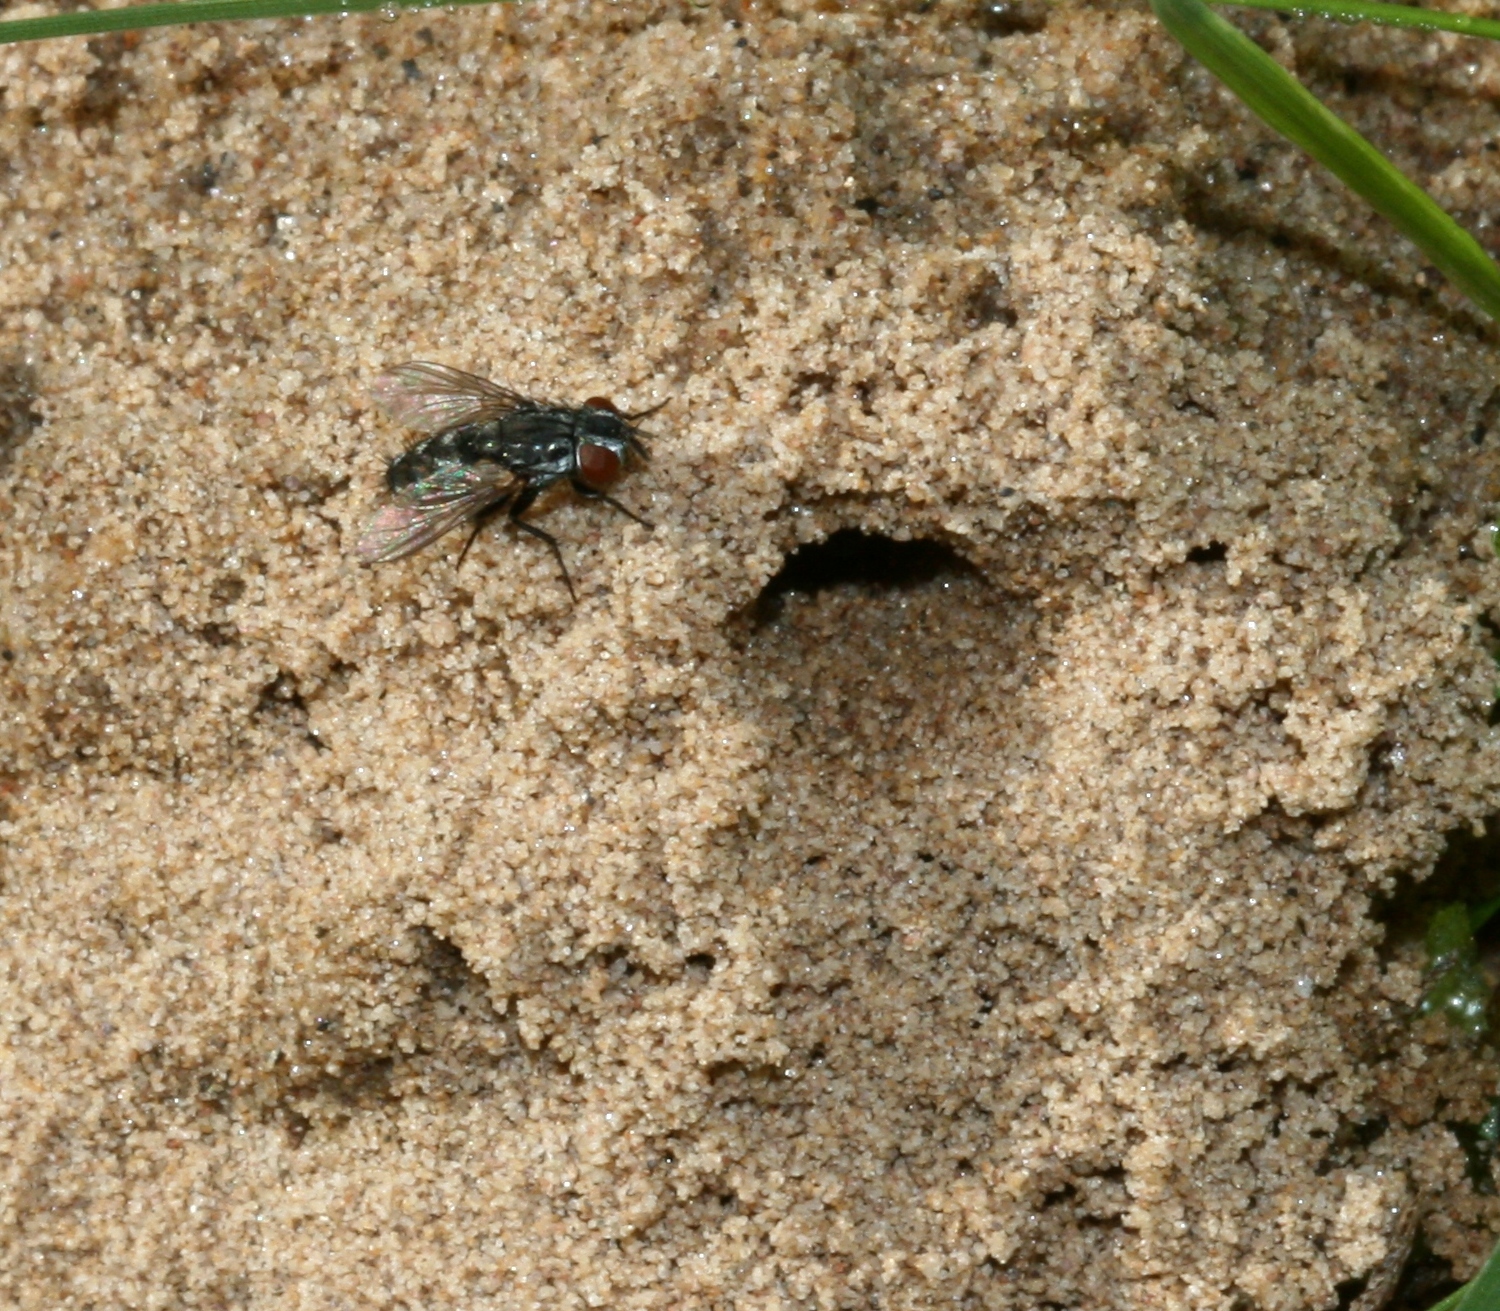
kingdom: Animalia
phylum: Arthropoda
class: Insecta
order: Diptera
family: Sarcophagidae
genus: Metopia
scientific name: Metopia
